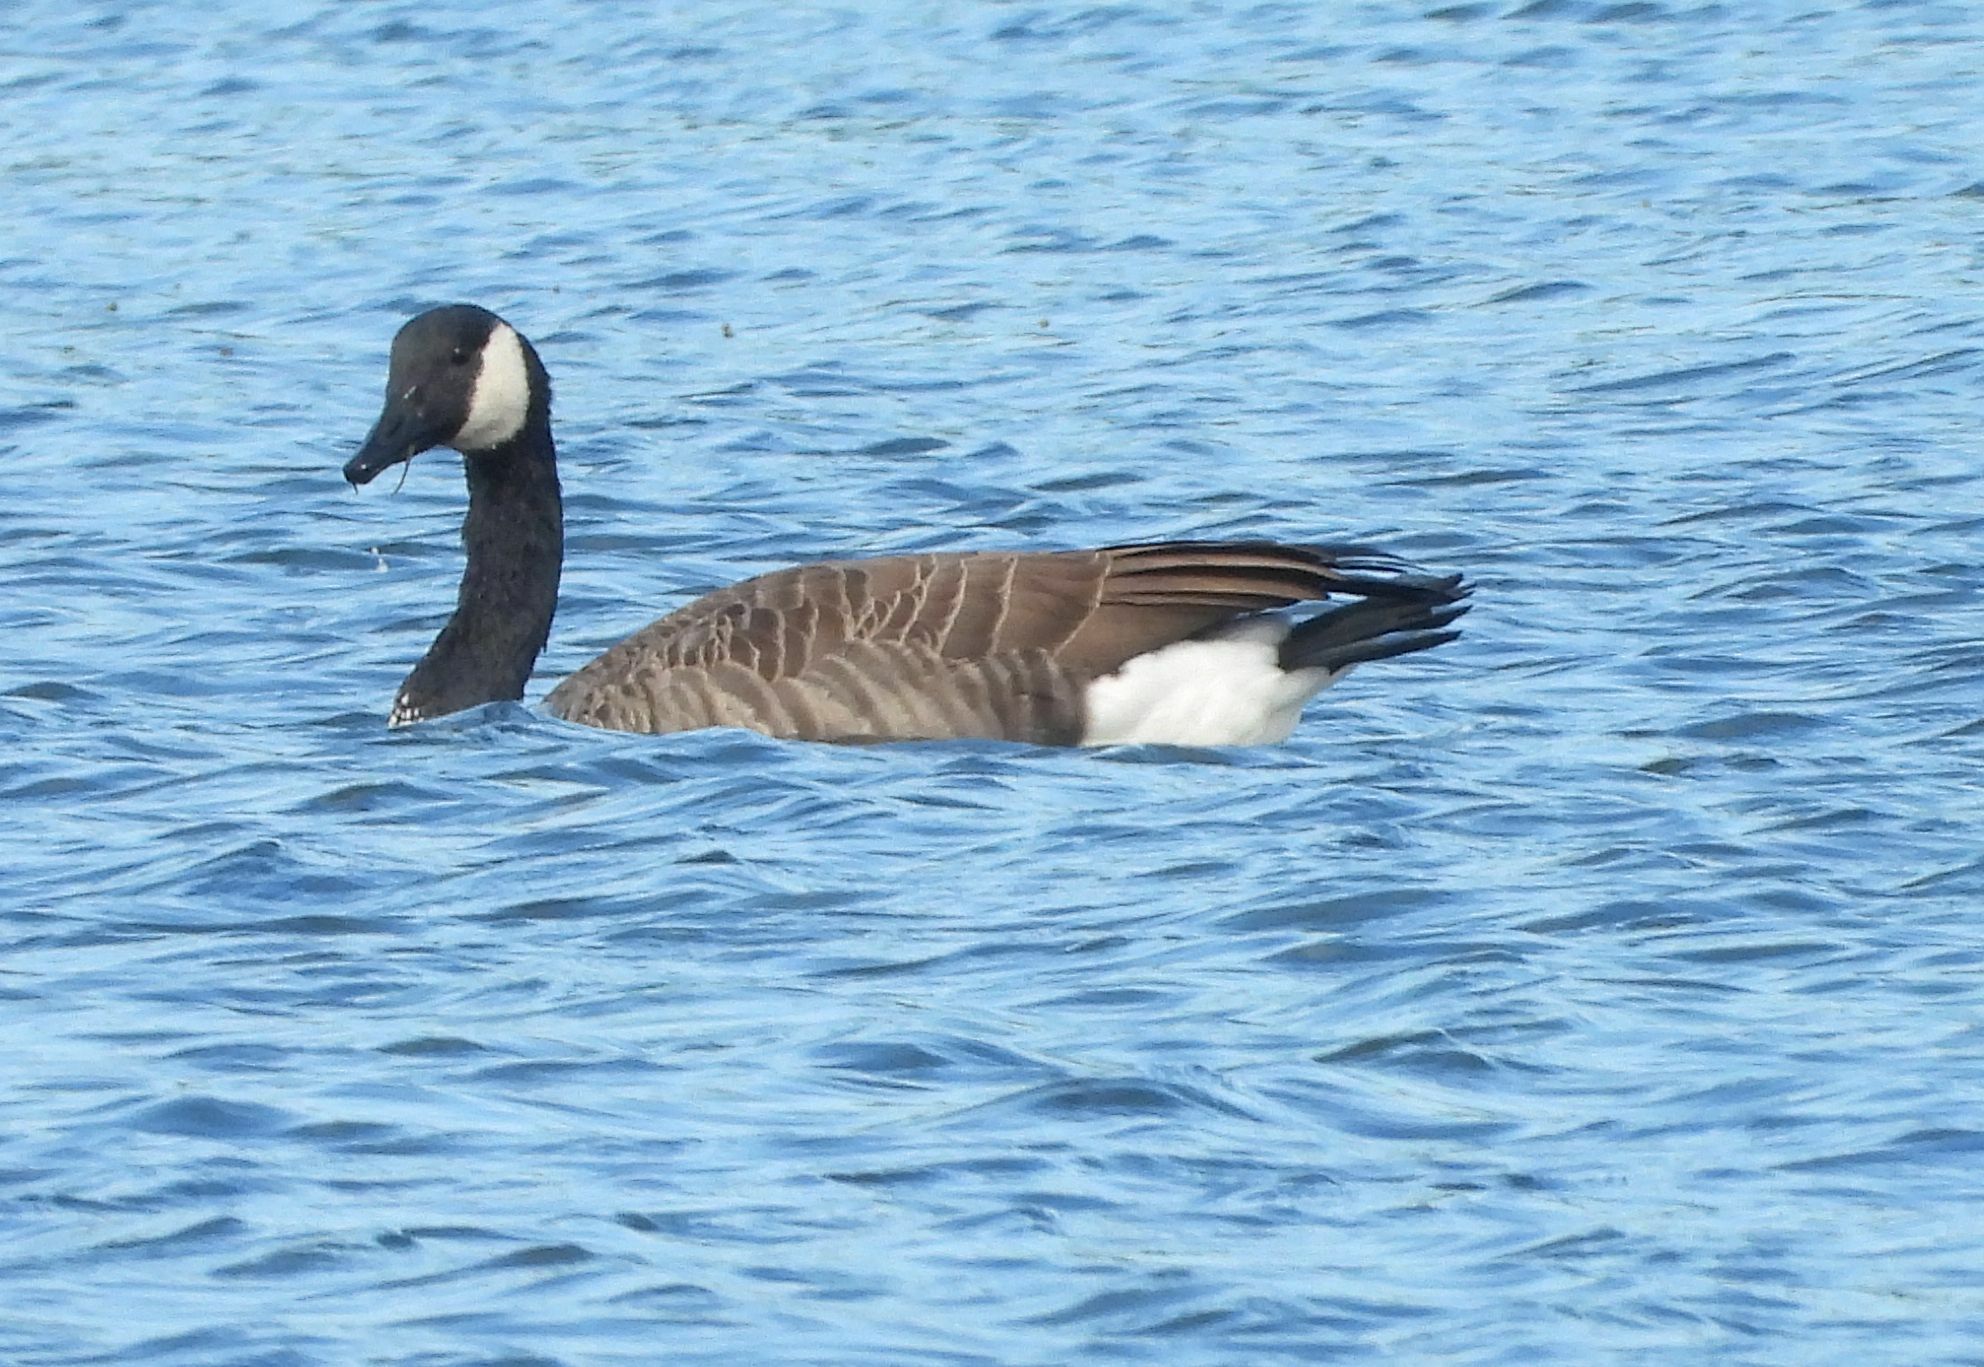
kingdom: Animalia
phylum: Chordata
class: Aves
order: Anseriformes
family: Anatidae
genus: Branta
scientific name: Branta canadensis
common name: Canada goose
